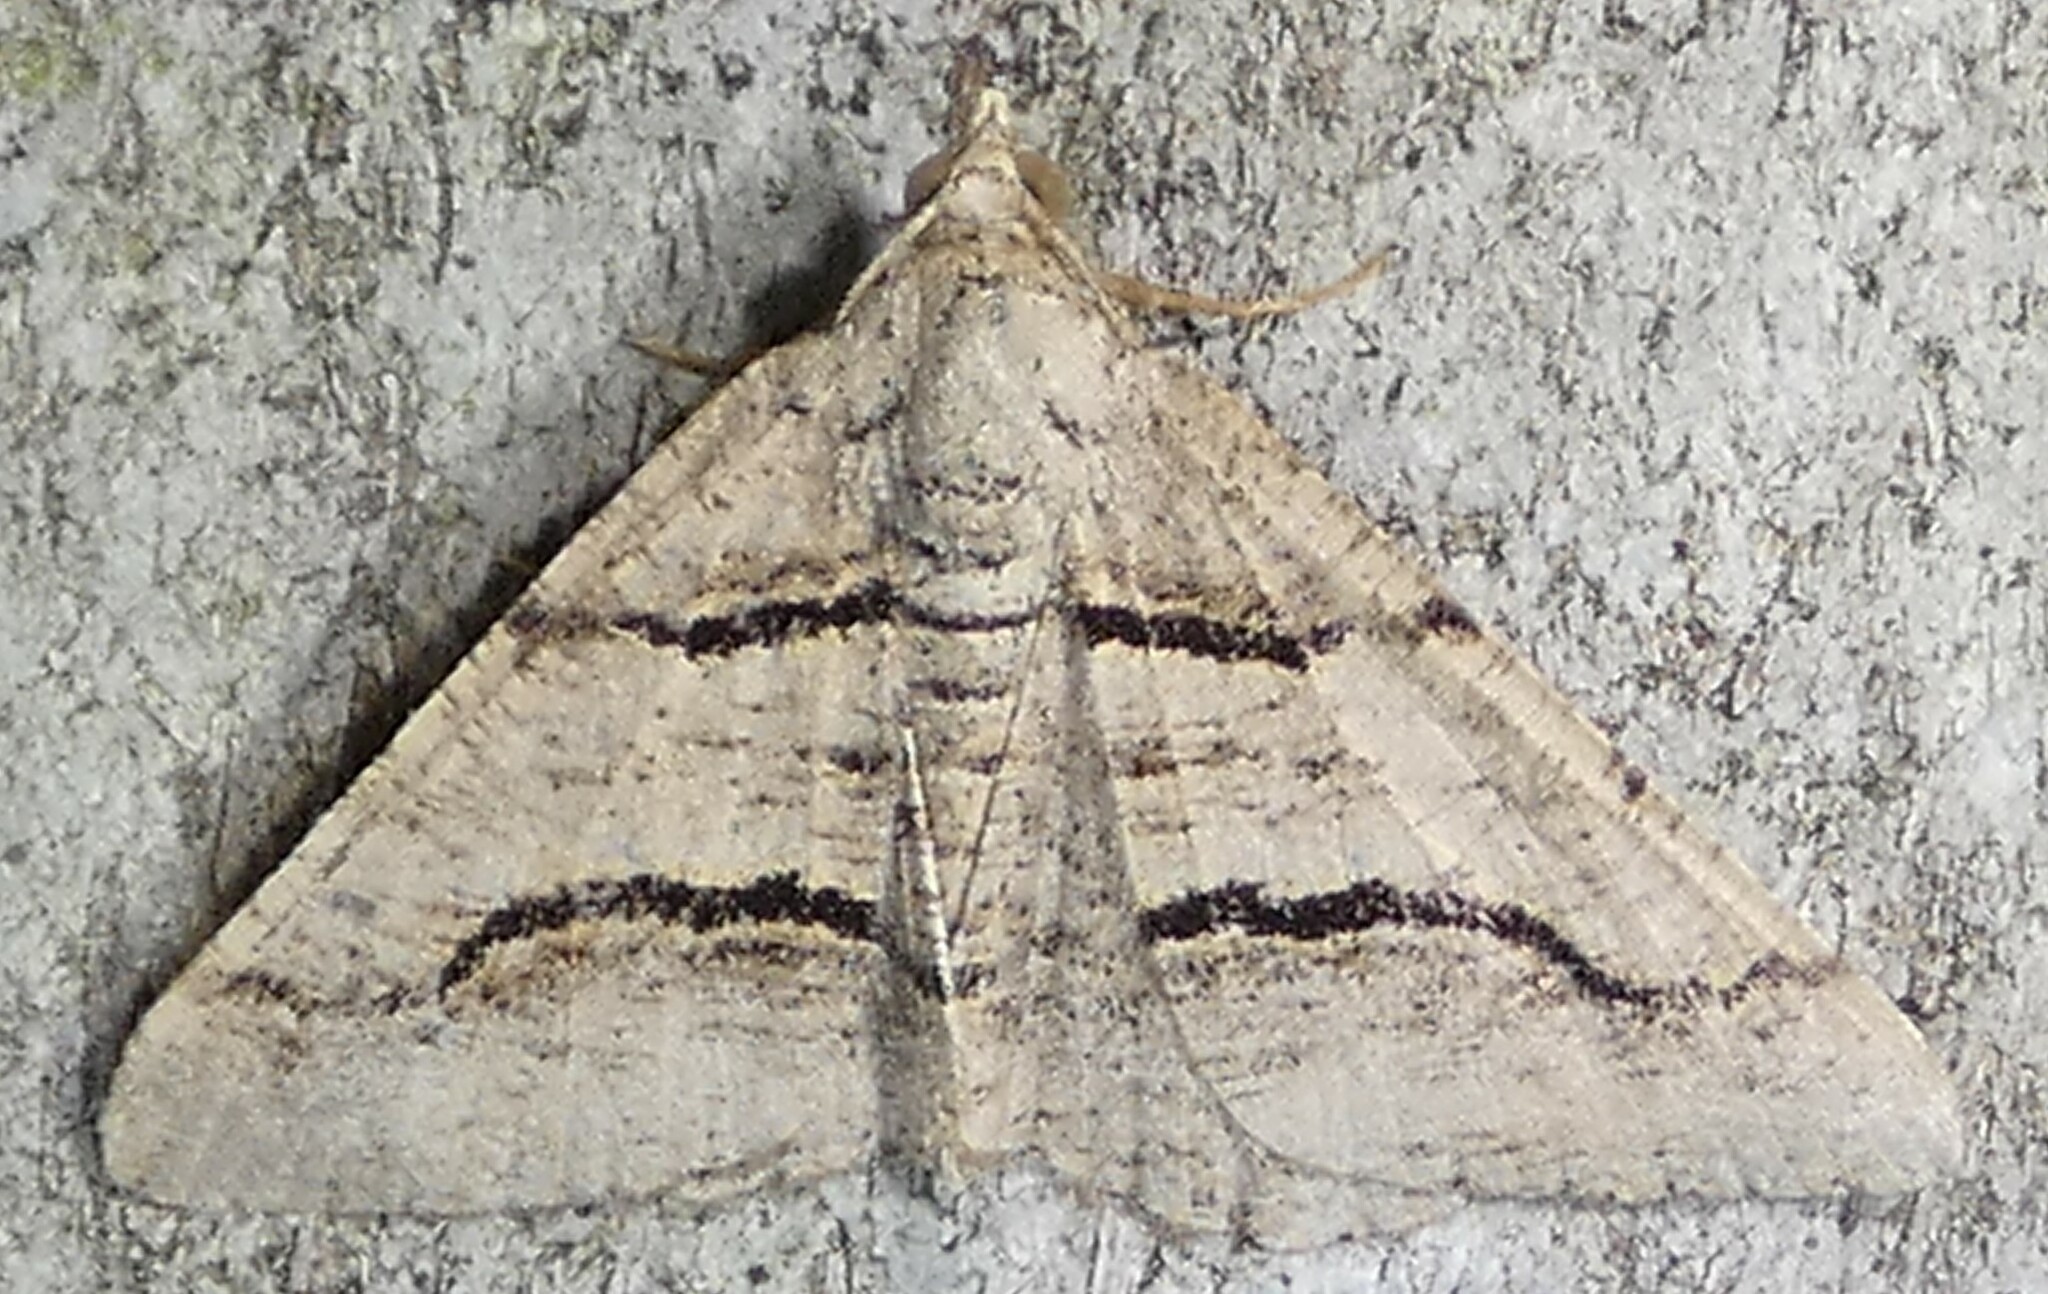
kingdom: Animalia
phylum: Arthropoda
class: Insecta
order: Lepidoptera
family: Geometridae
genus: Digrammia
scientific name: Digrammia continuata
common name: Curve-lined angle
